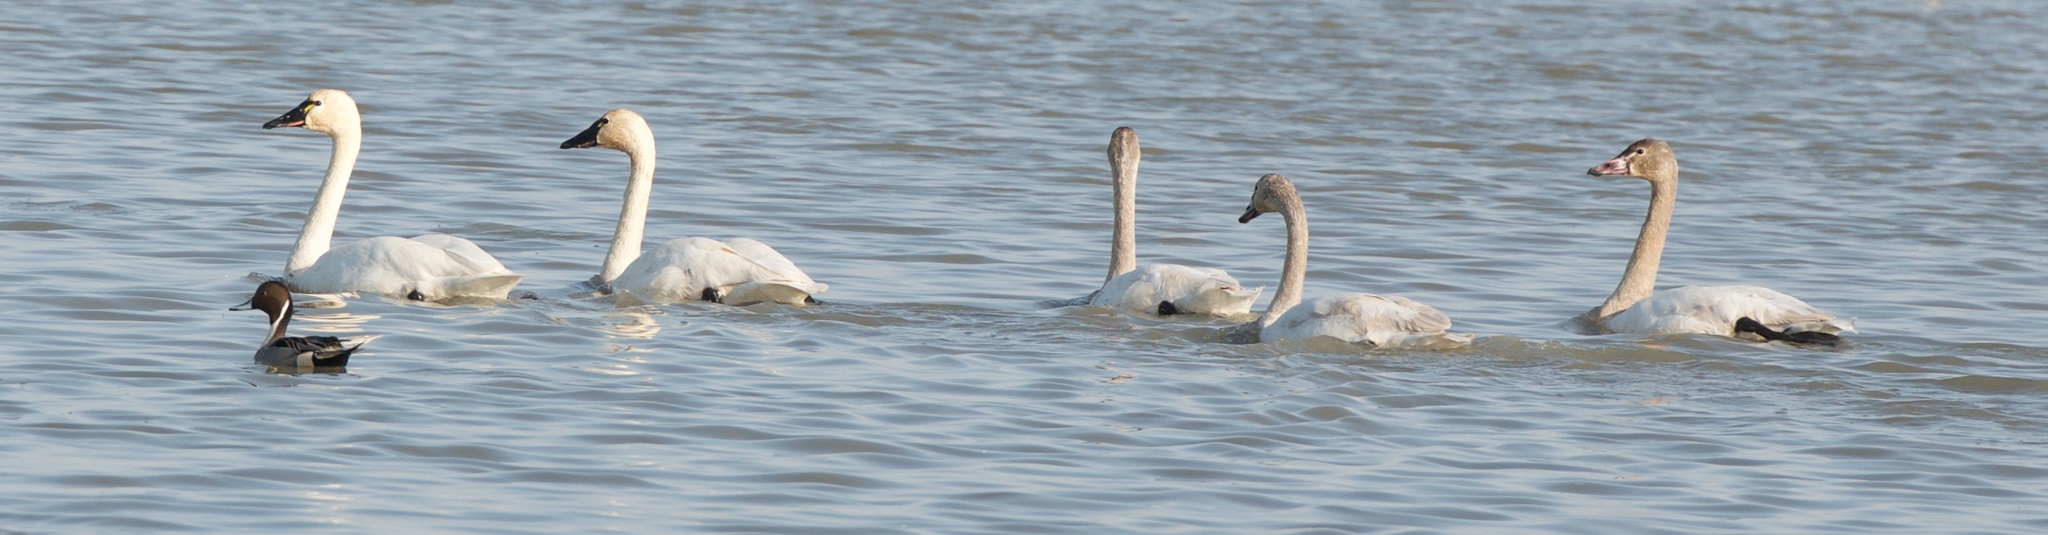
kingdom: Animalia
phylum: Chordata
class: Aves
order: Anseriformes
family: Anatidae
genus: Cygnus
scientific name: Cygnus columbianus
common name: Tundra swan
